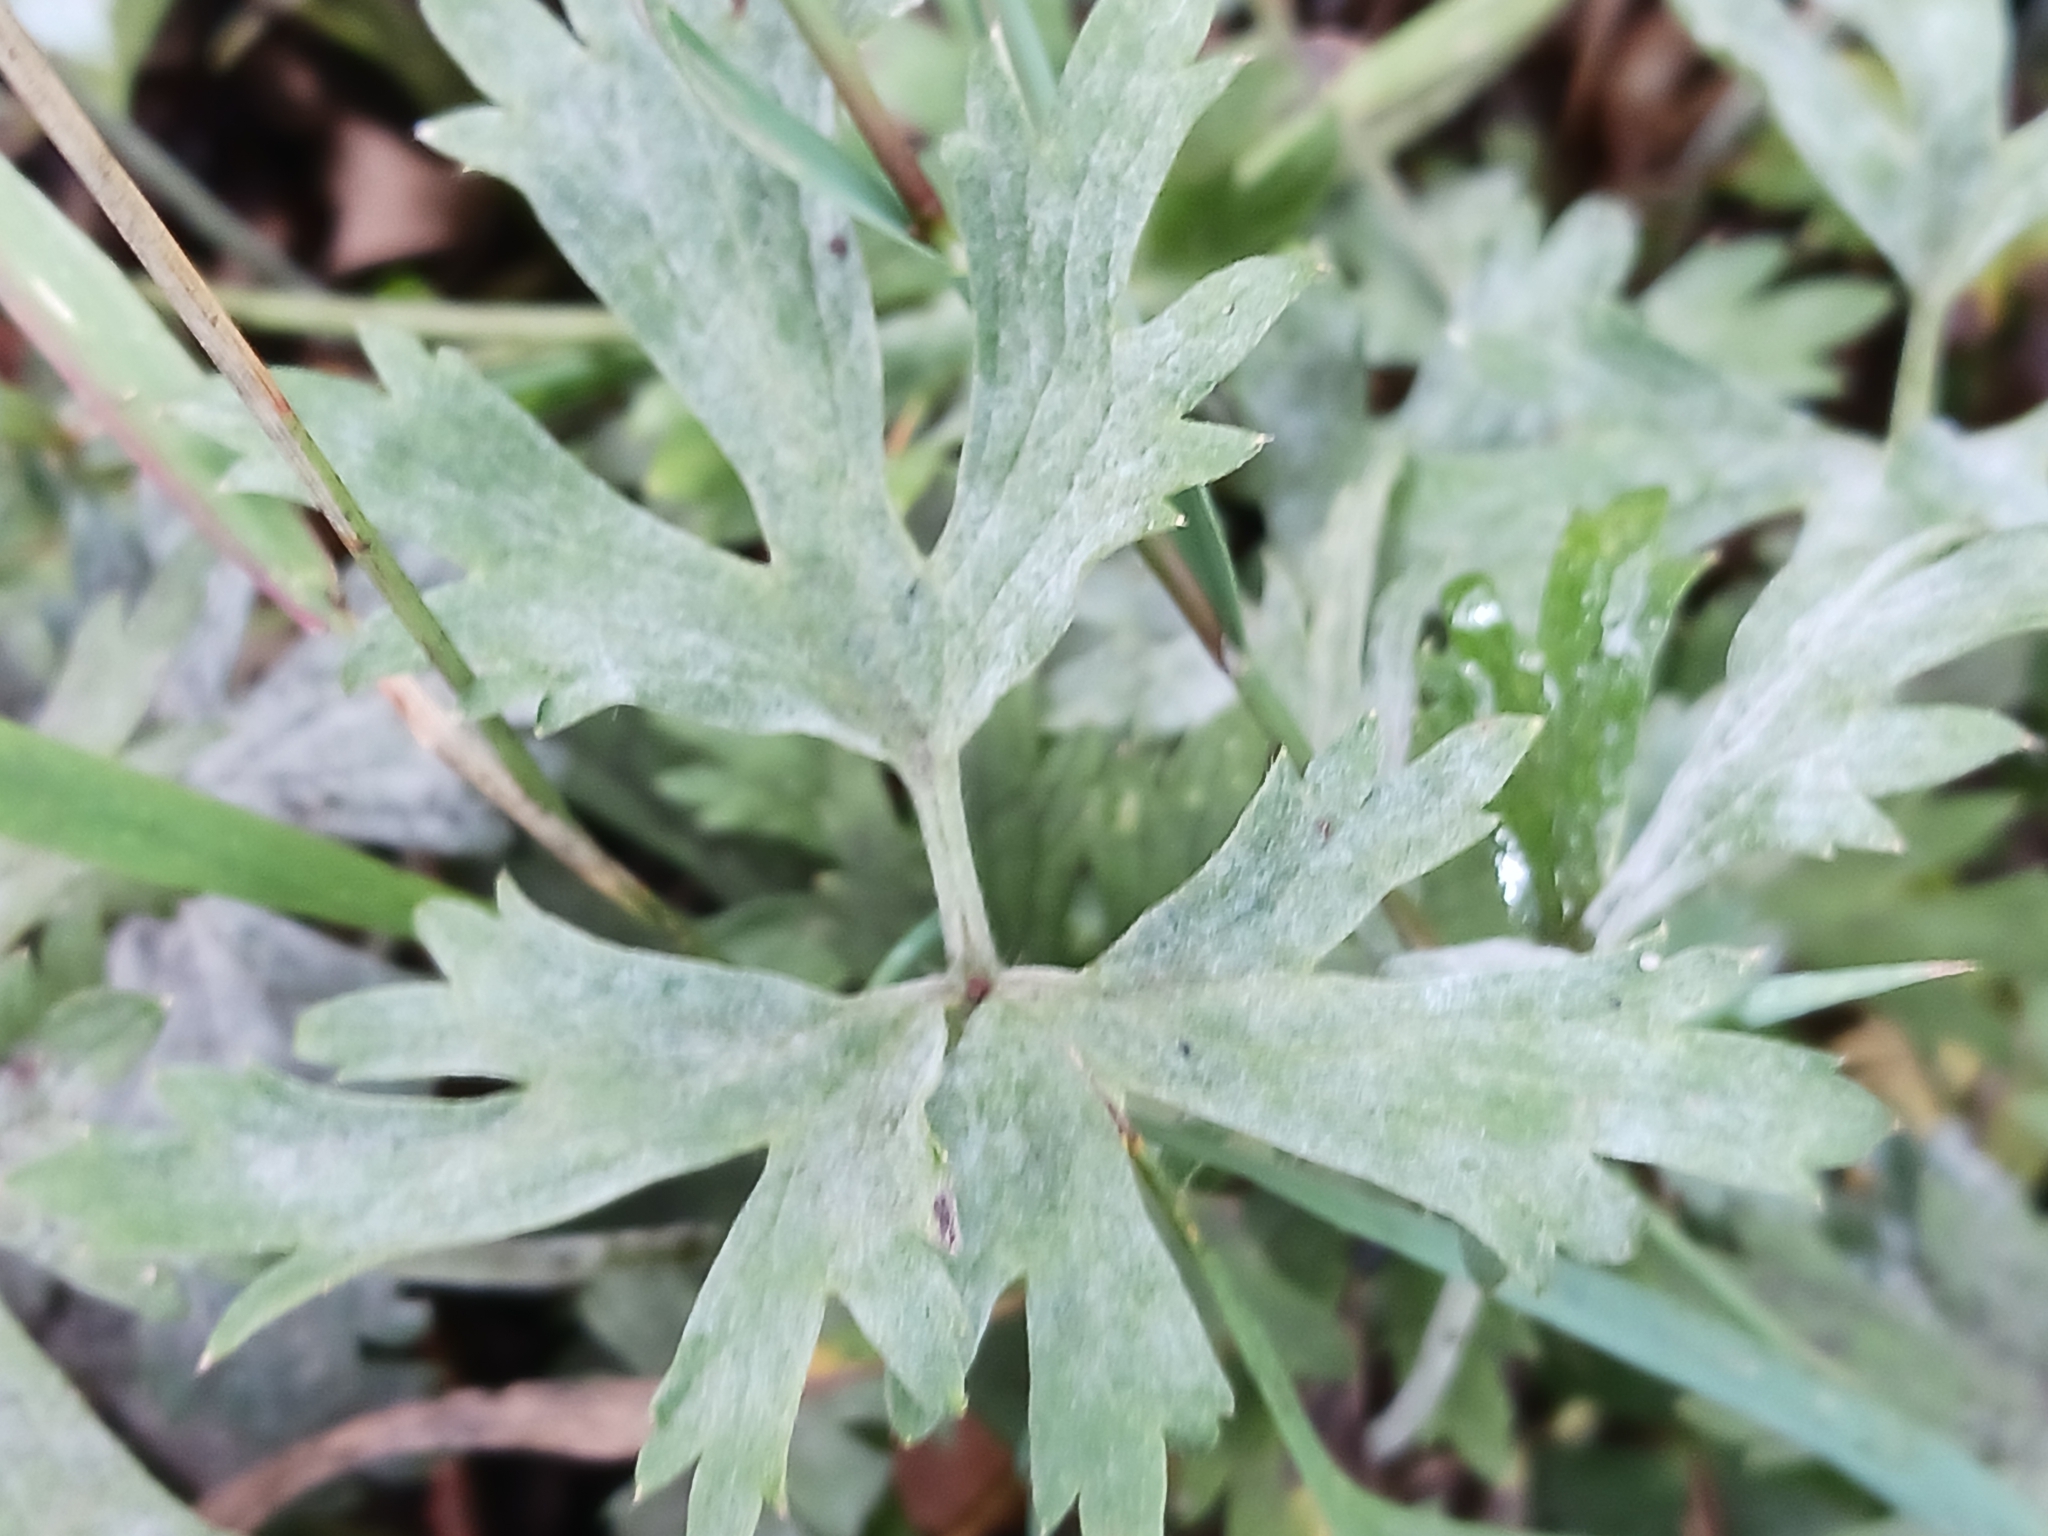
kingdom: Fungi
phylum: Ascomycota
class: Leotiomycetes
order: Helotiales
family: Erysiphaceae
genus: Erysiphe
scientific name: Erysiphe aquilegiae
